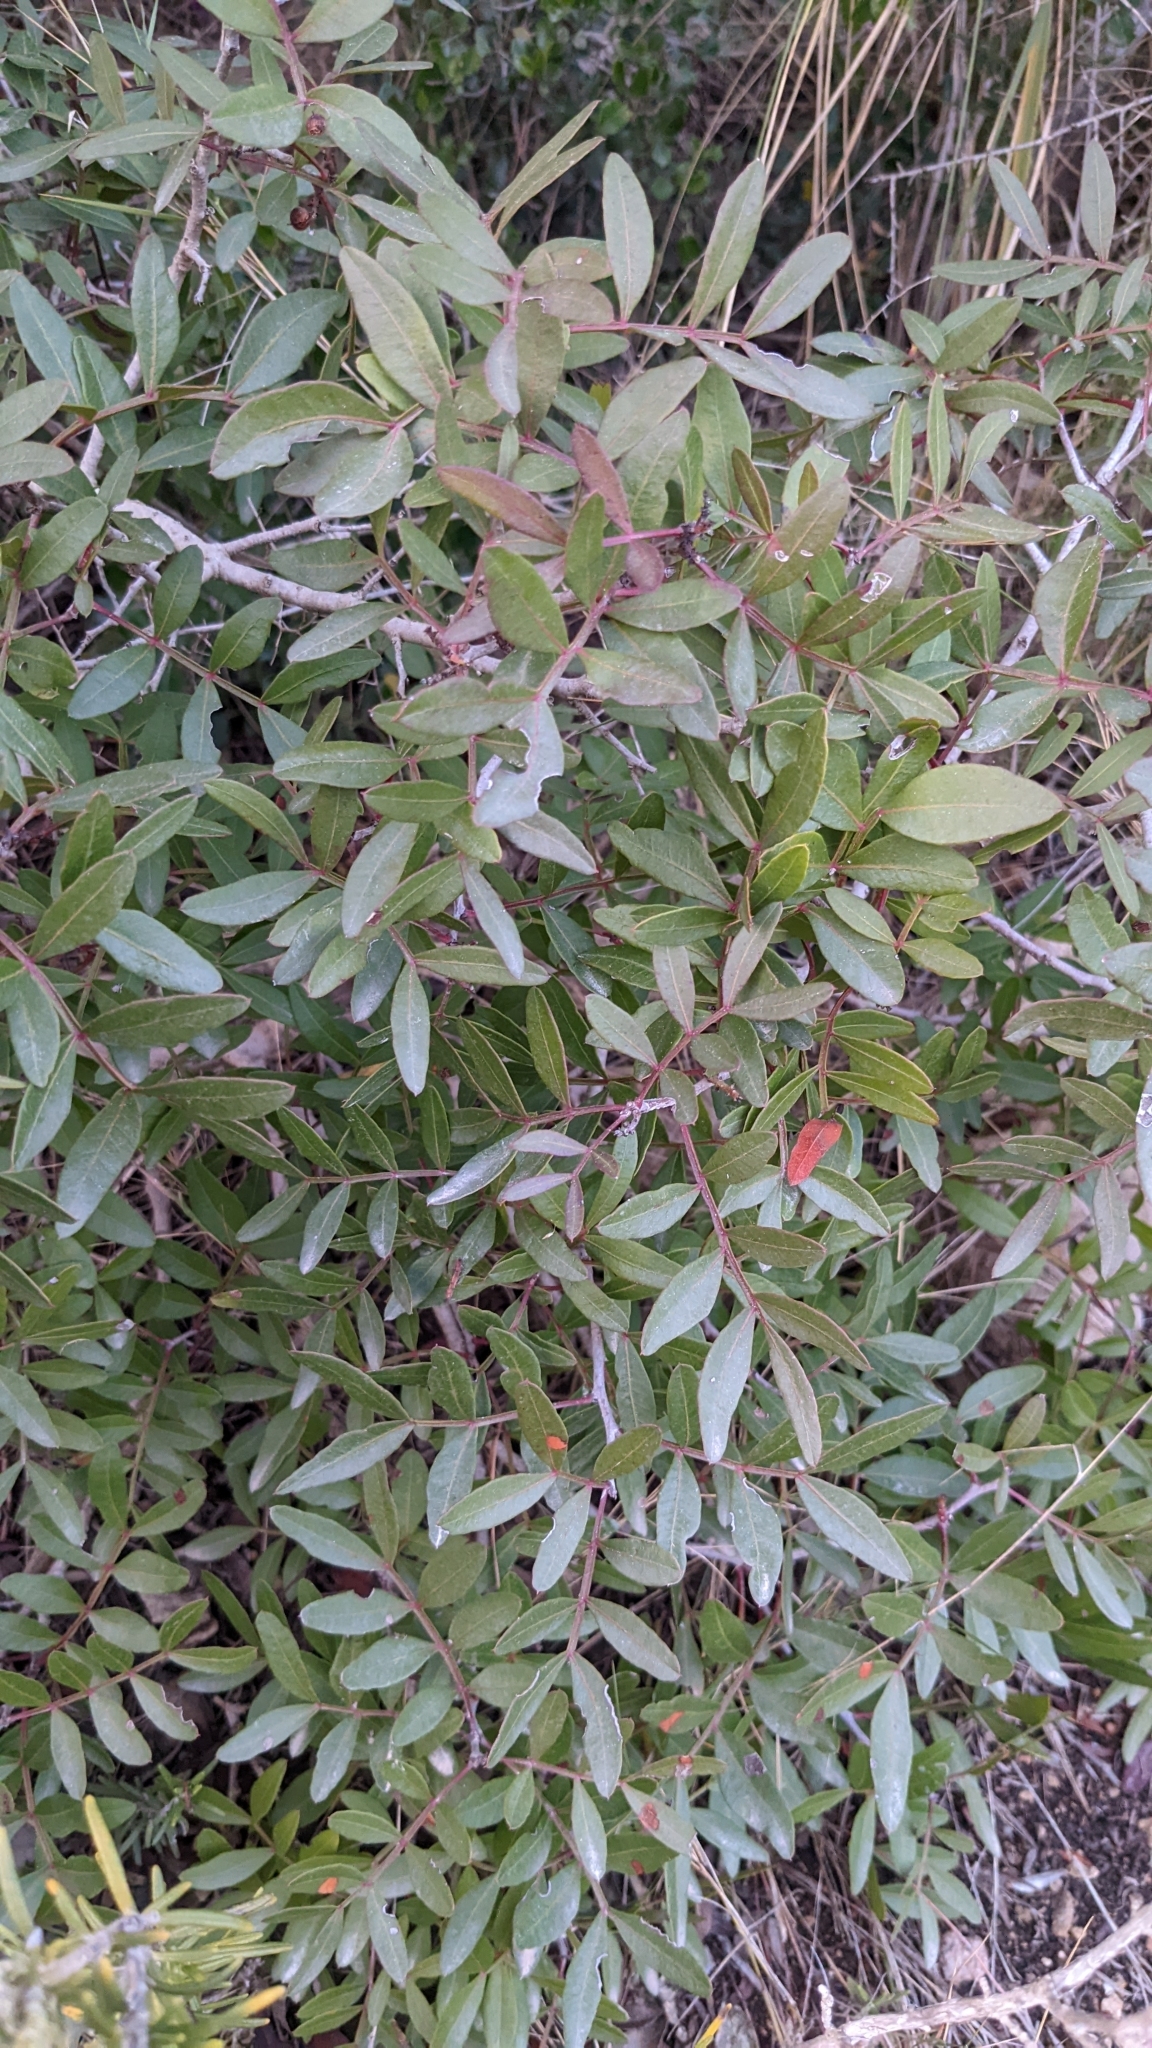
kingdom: Plantae
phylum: Tracheophyta
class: Magnoliopsida
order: Sapindales
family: Anacardiaceae
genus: Pistacia
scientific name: Pistacia lentiscus
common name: Lentisk
